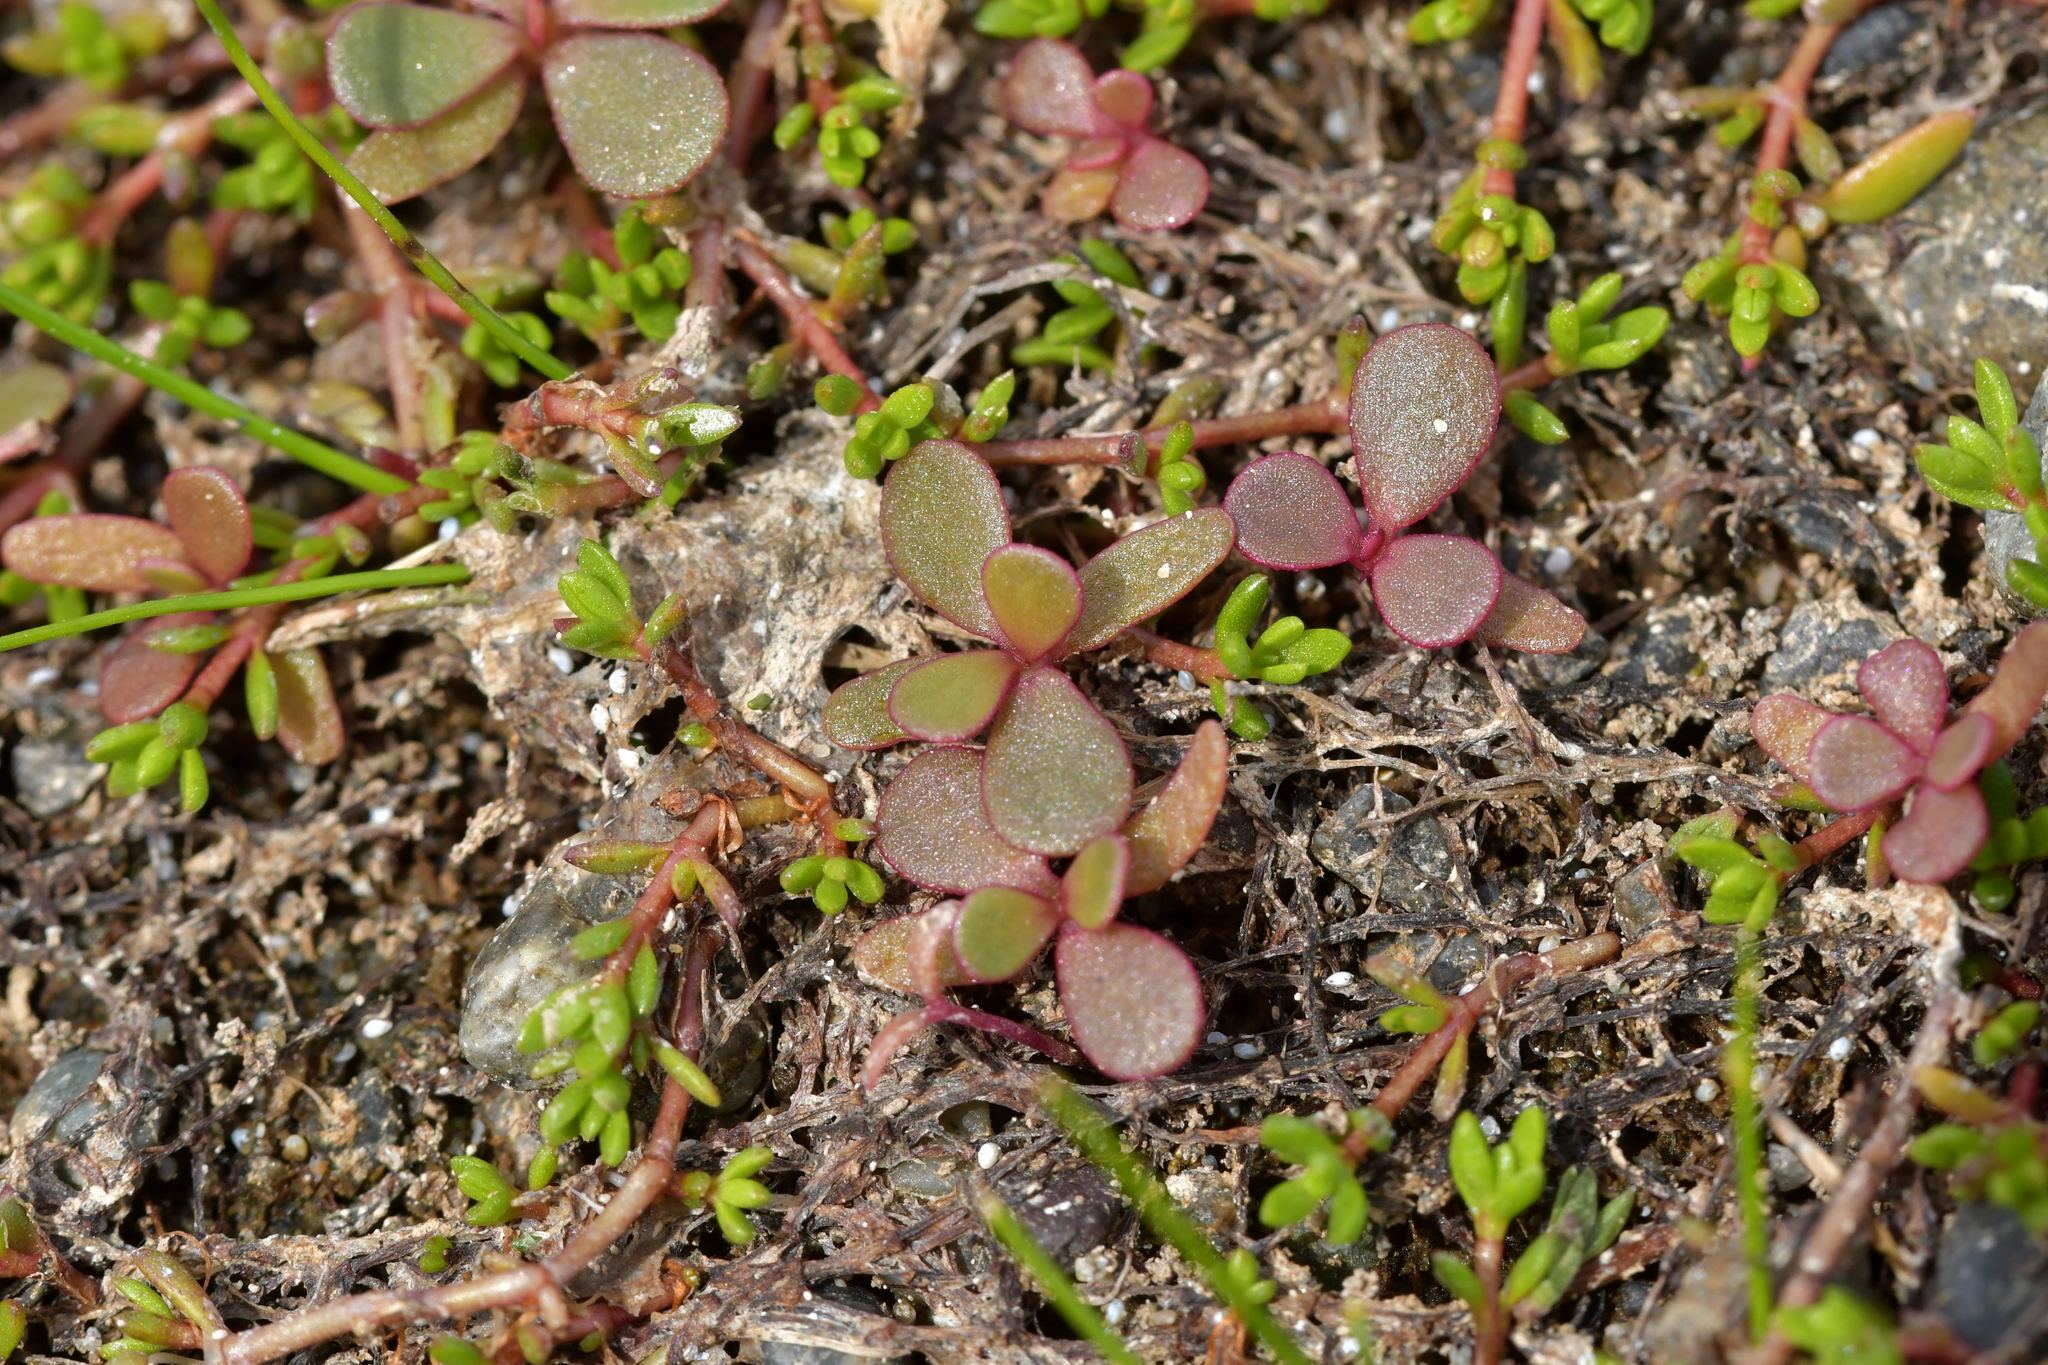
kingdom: Plantae
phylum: Tracheophyta
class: Magnoliopsida
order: Caryophyllales
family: Portulacaceae
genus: Portulaca
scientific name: Portulaca oleracea
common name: Common purslane
